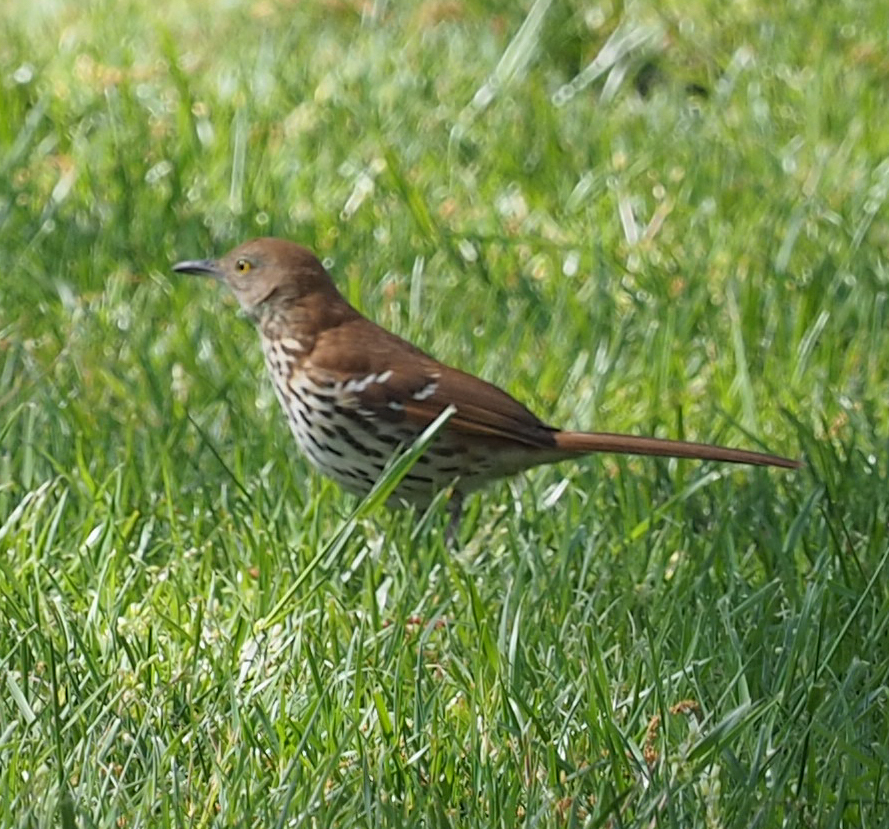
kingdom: Animalia
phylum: Chordata
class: Aves
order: Passeriformes
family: Mimidae
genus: Toxostoma
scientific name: Toxostoma rufum
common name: Brown thrasher
